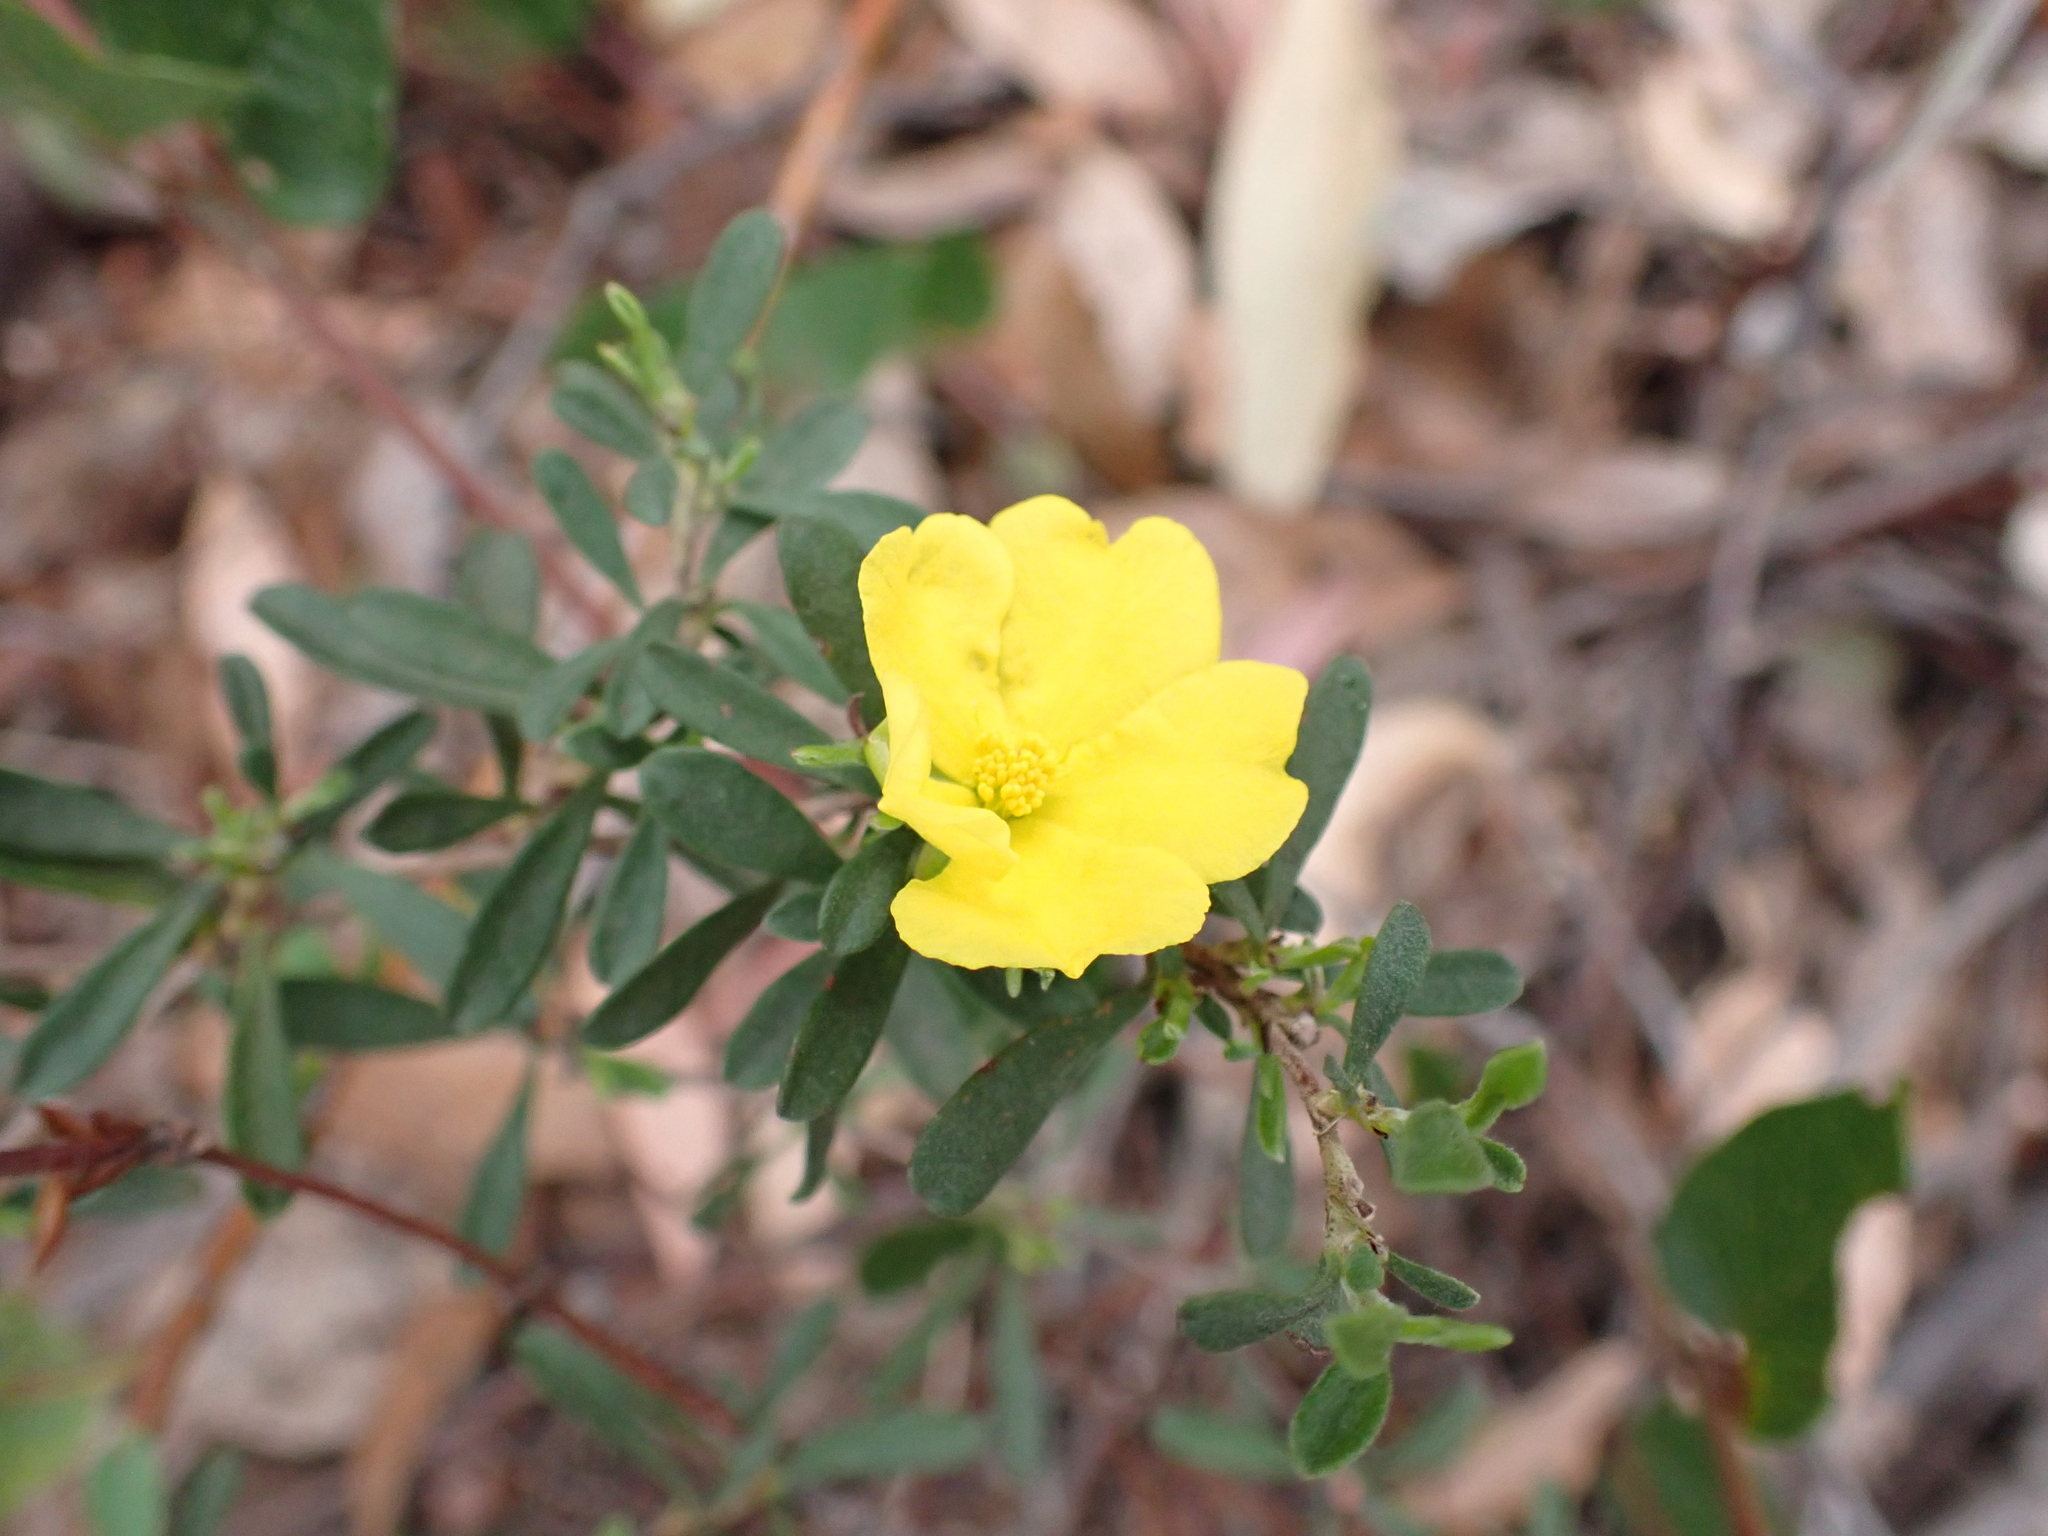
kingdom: Plantae
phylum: Tracheophyta
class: Magnoliopsida
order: Dilleniales
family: Dilleniaceae
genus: Hibbertia
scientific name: Hibbertia obtusifolia
